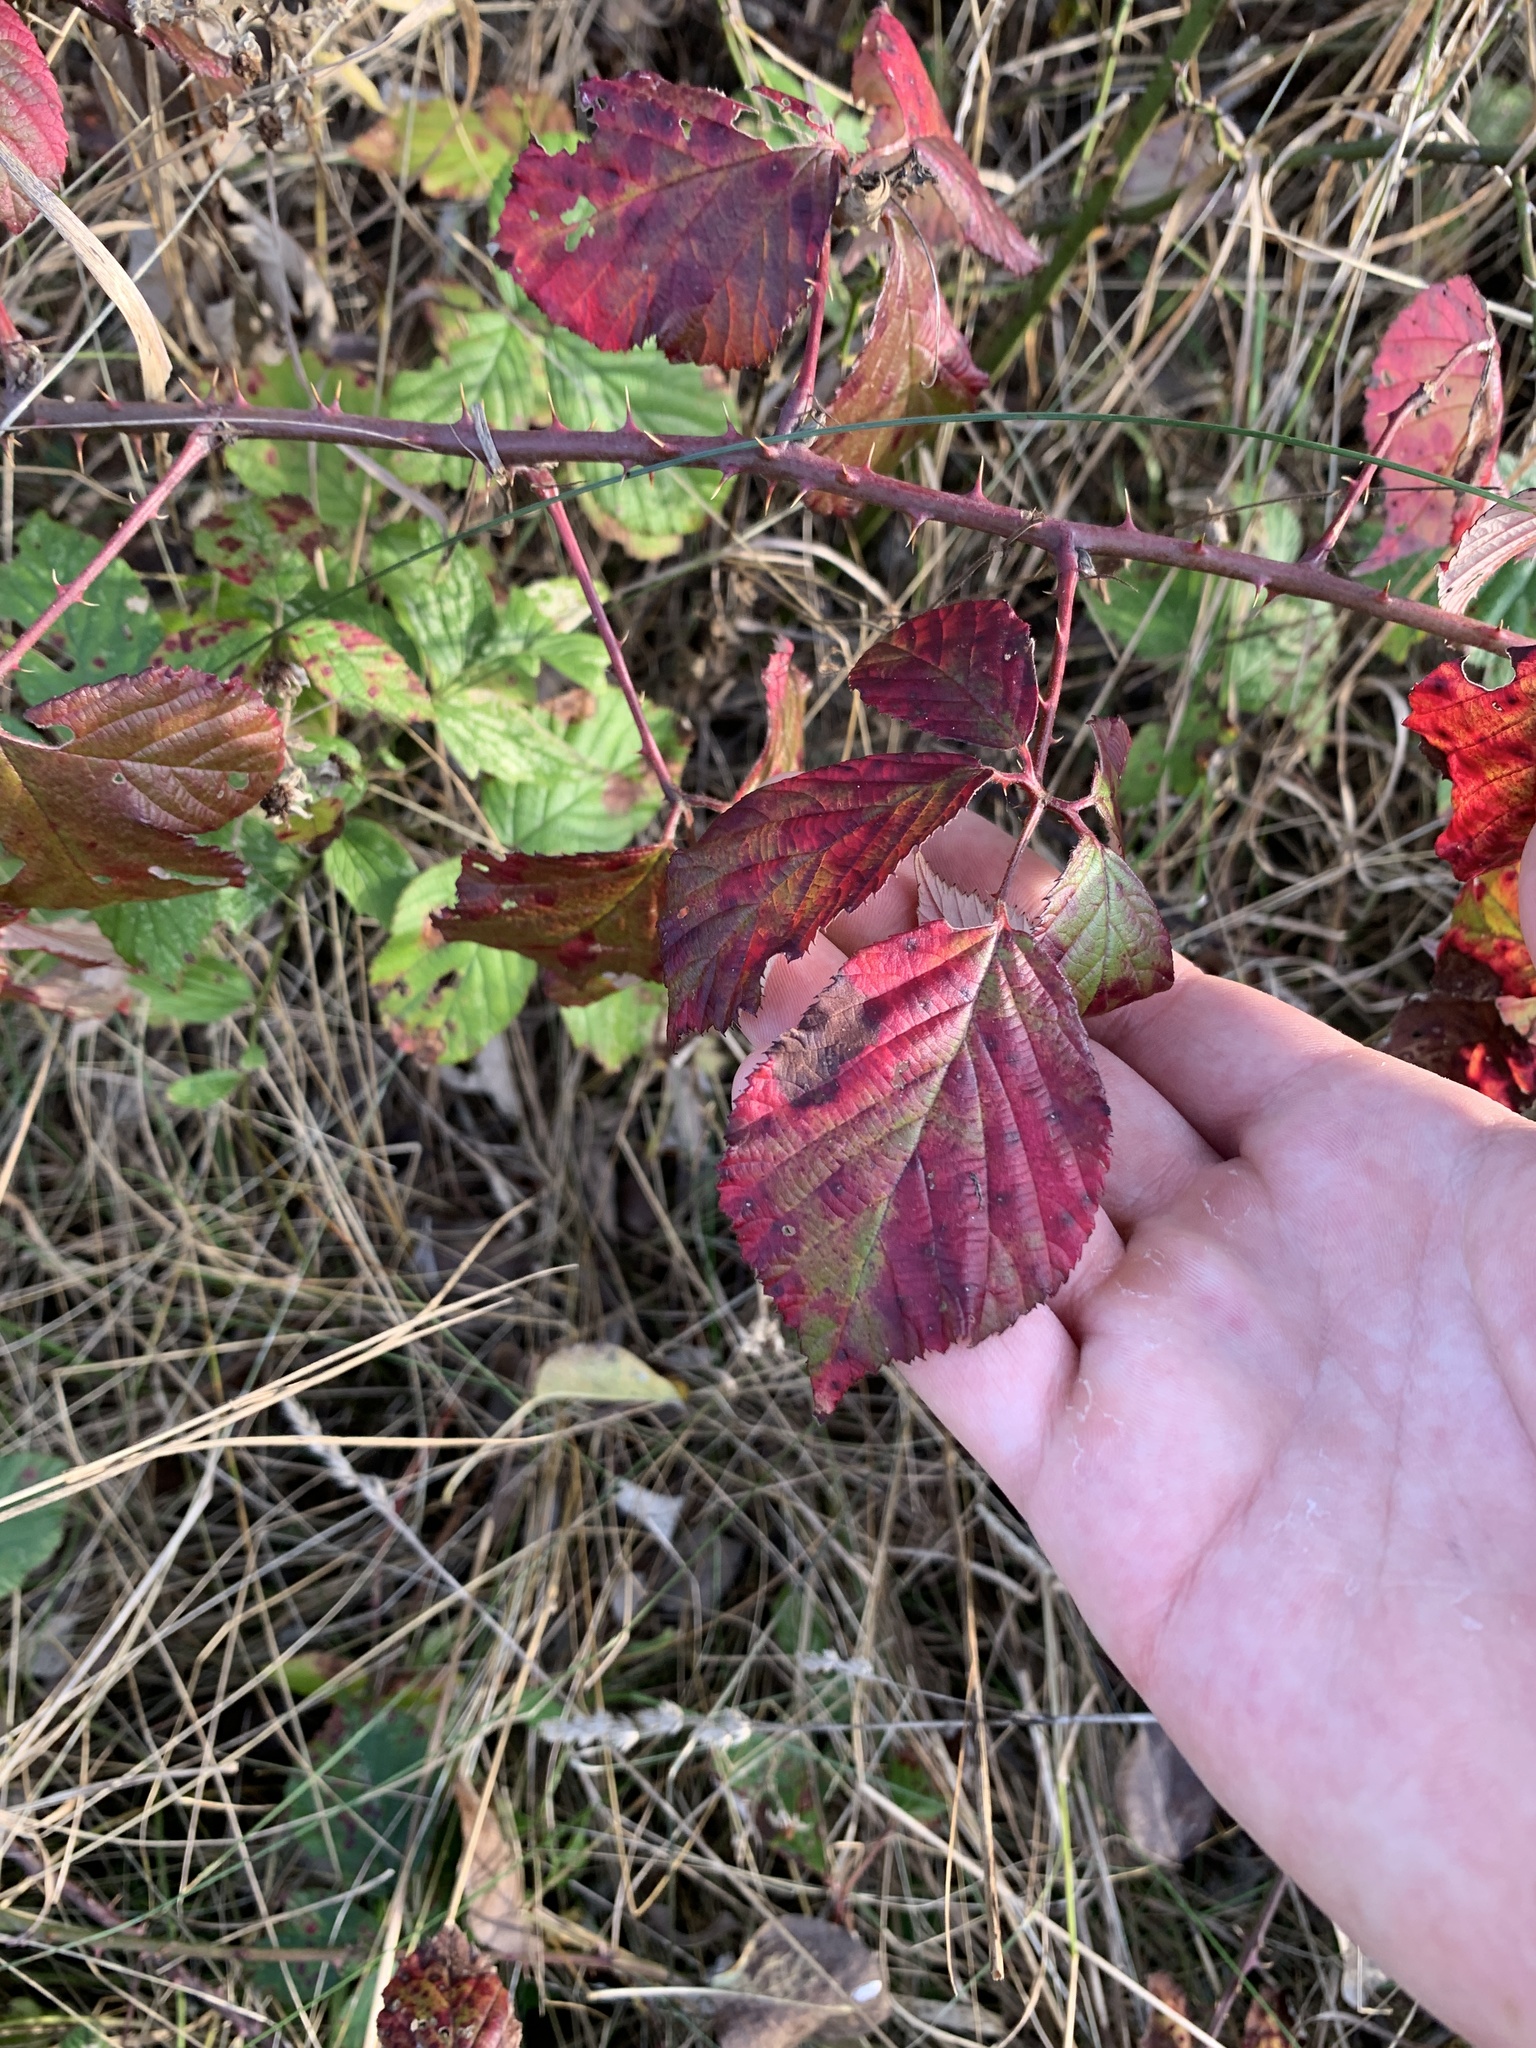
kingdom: Plantae
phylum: Tracheophyta
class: Magnoliopsida
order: Rosales
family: Rosaceae
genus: Rubus
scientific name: Rubus caesius
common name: Dewberry
